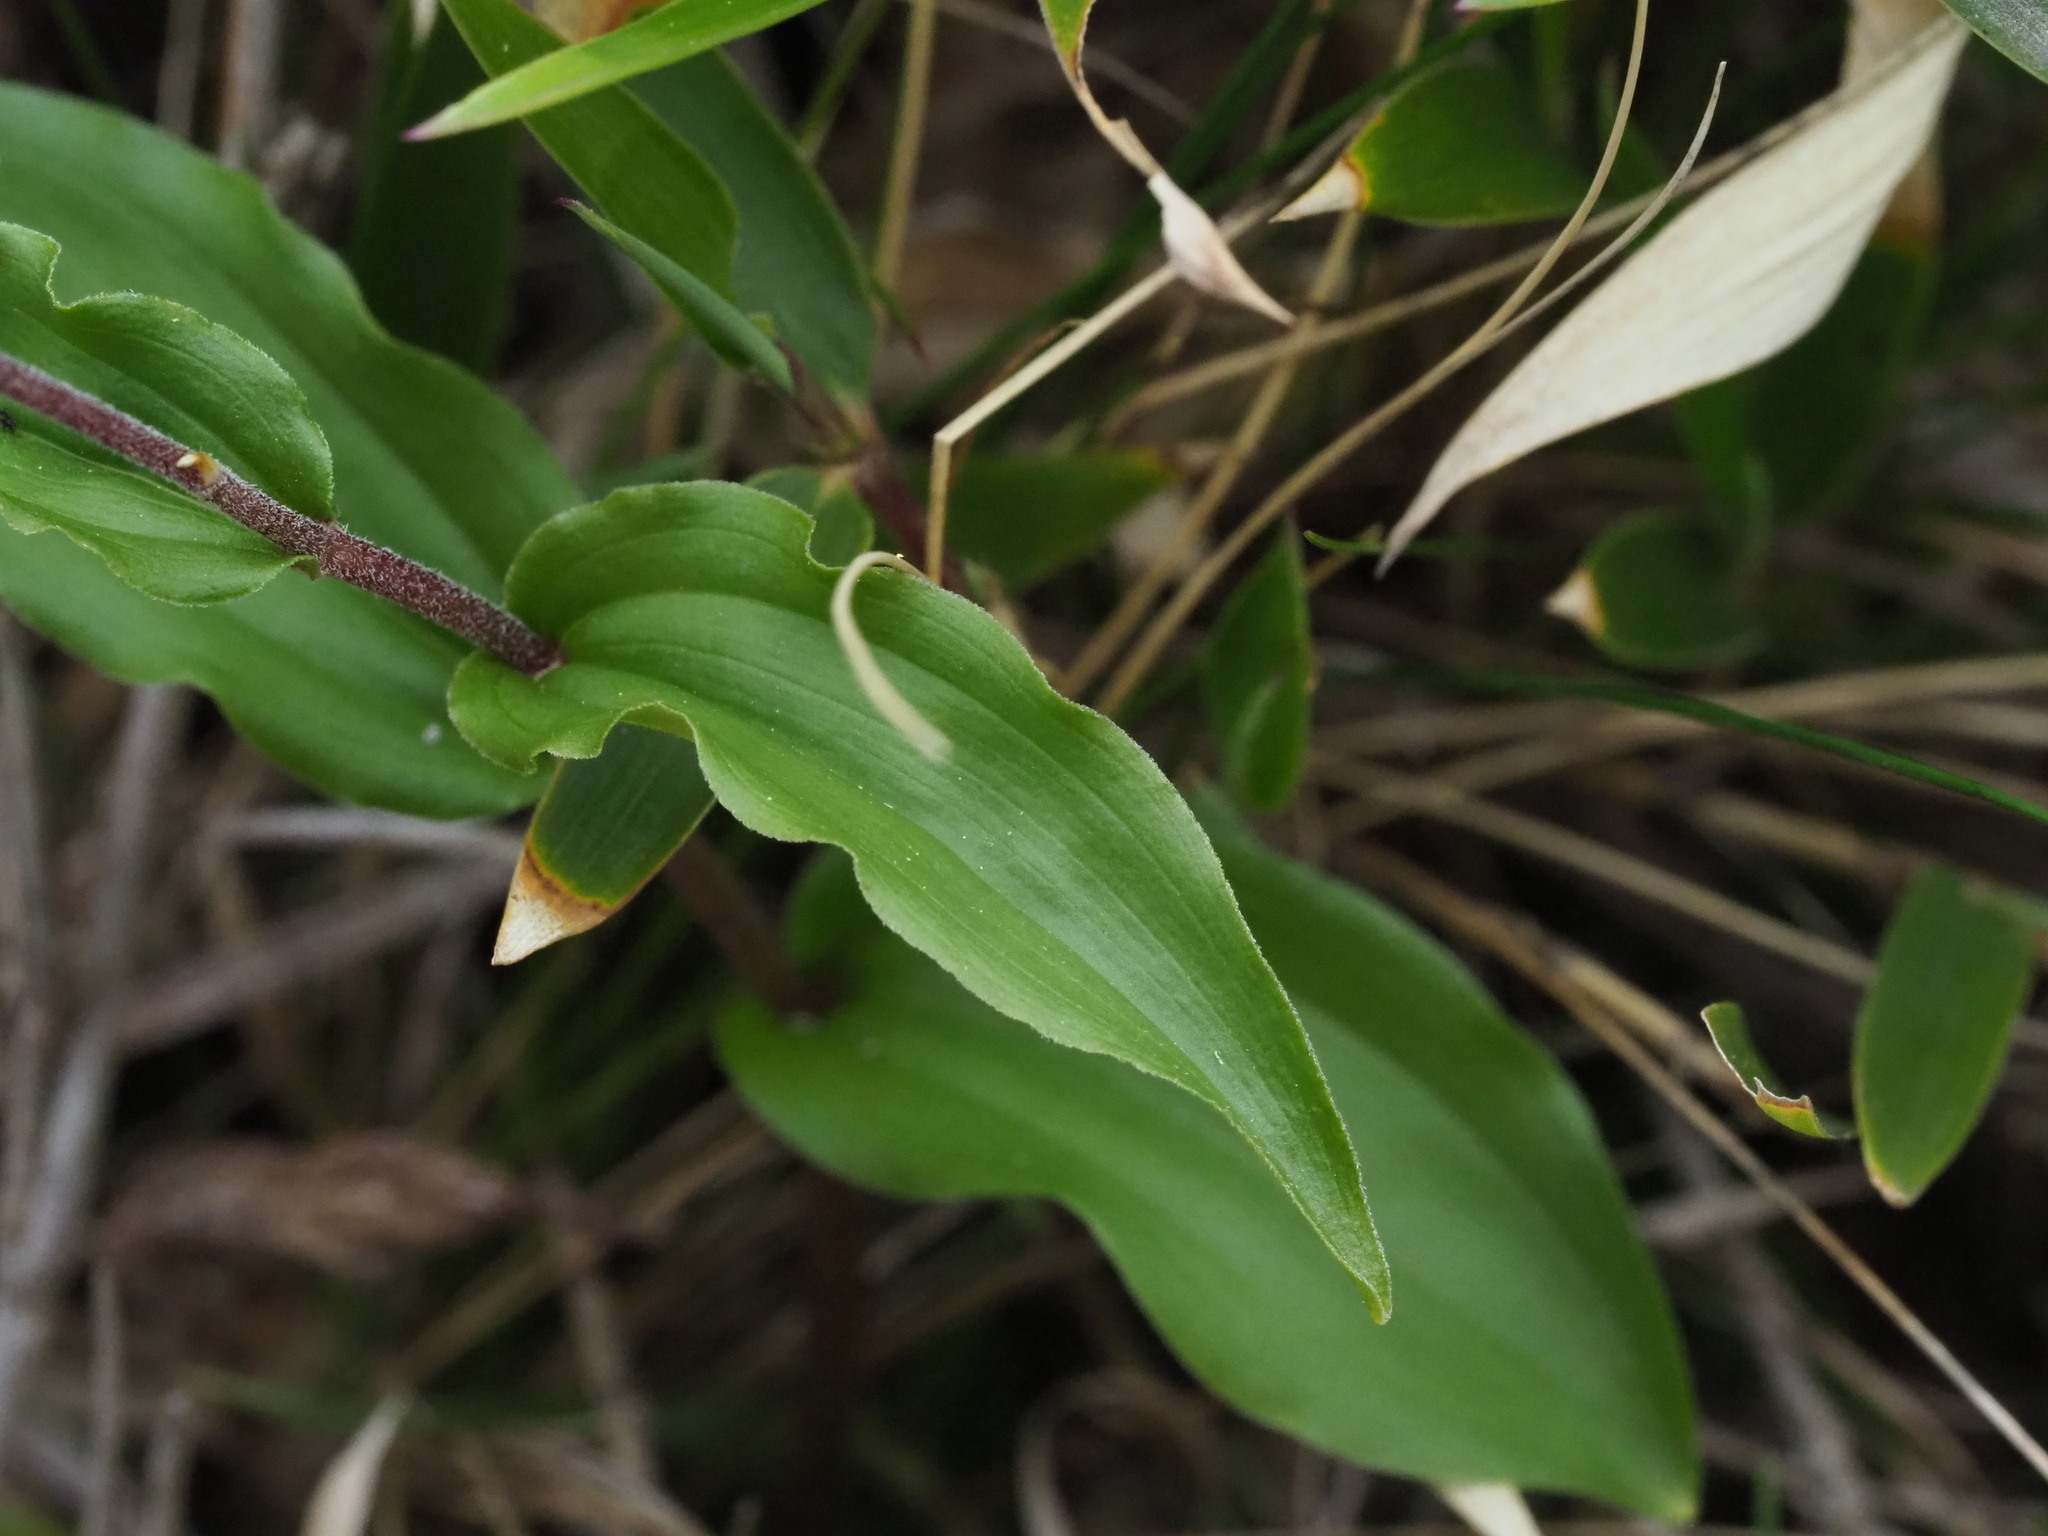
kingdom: Plantae
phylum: Tracheophyta
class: Liliopsida
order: Asparagales
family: Asparagaceae
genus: Maianthemum
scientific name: Maianthemum formosanum
